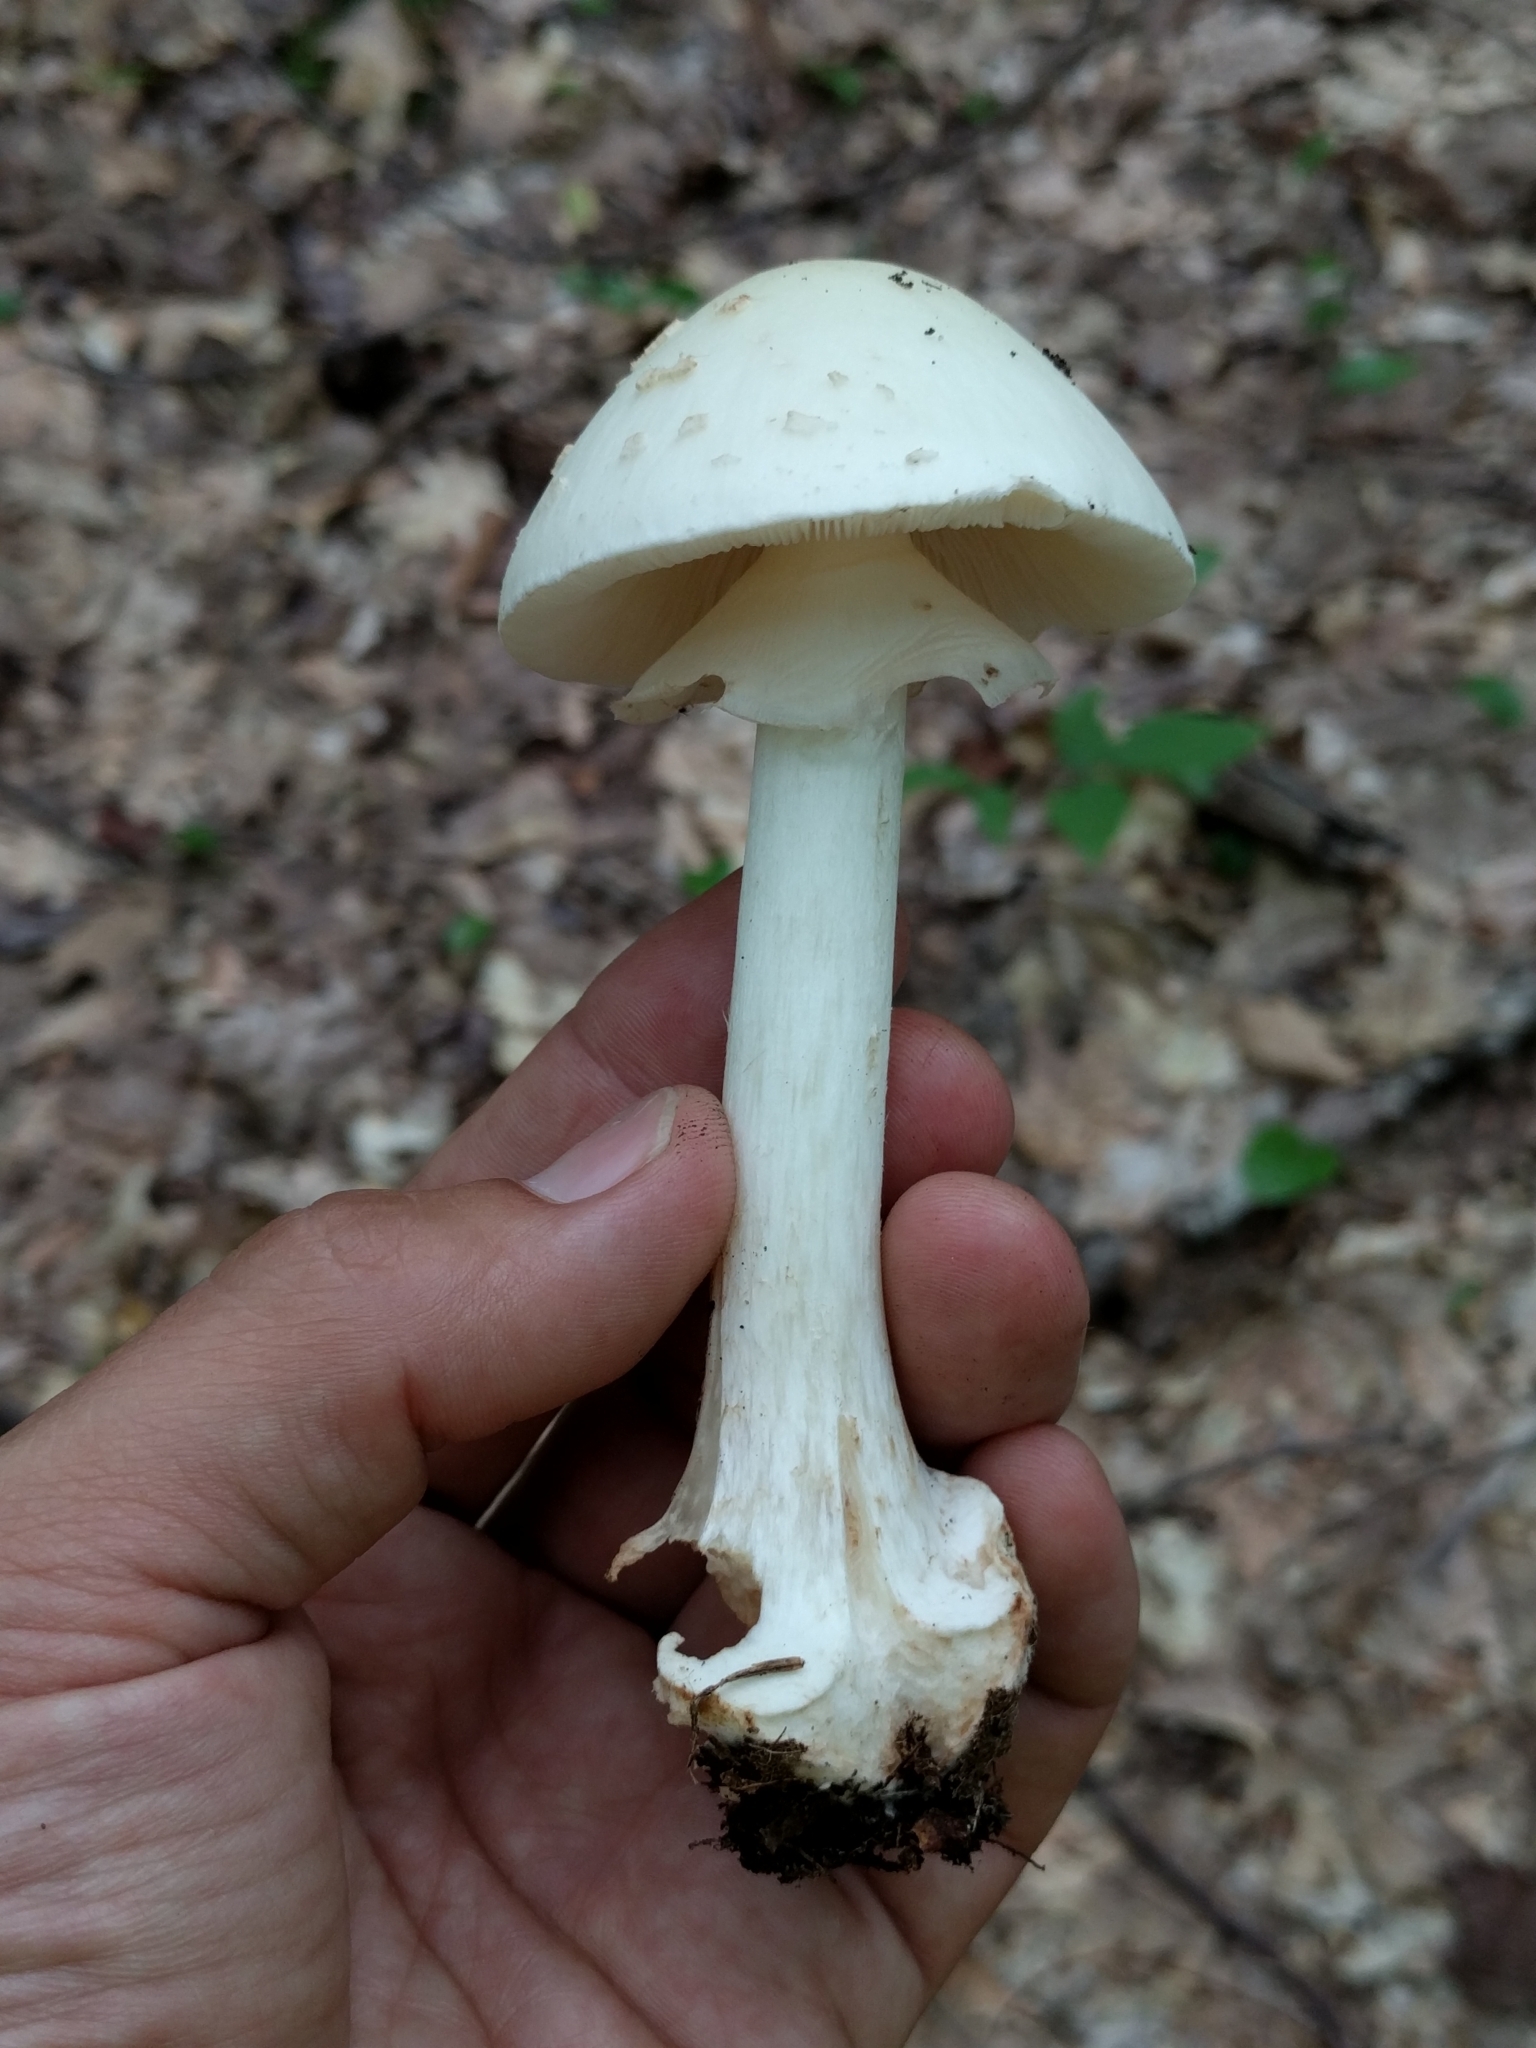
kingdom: Fungi
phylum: Basidiomycota
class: Agaricomycetes
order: Agaricales
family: Amanitaceae
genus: Amanita
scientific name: Amanita aestivalis
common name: White american star-footed amanita
